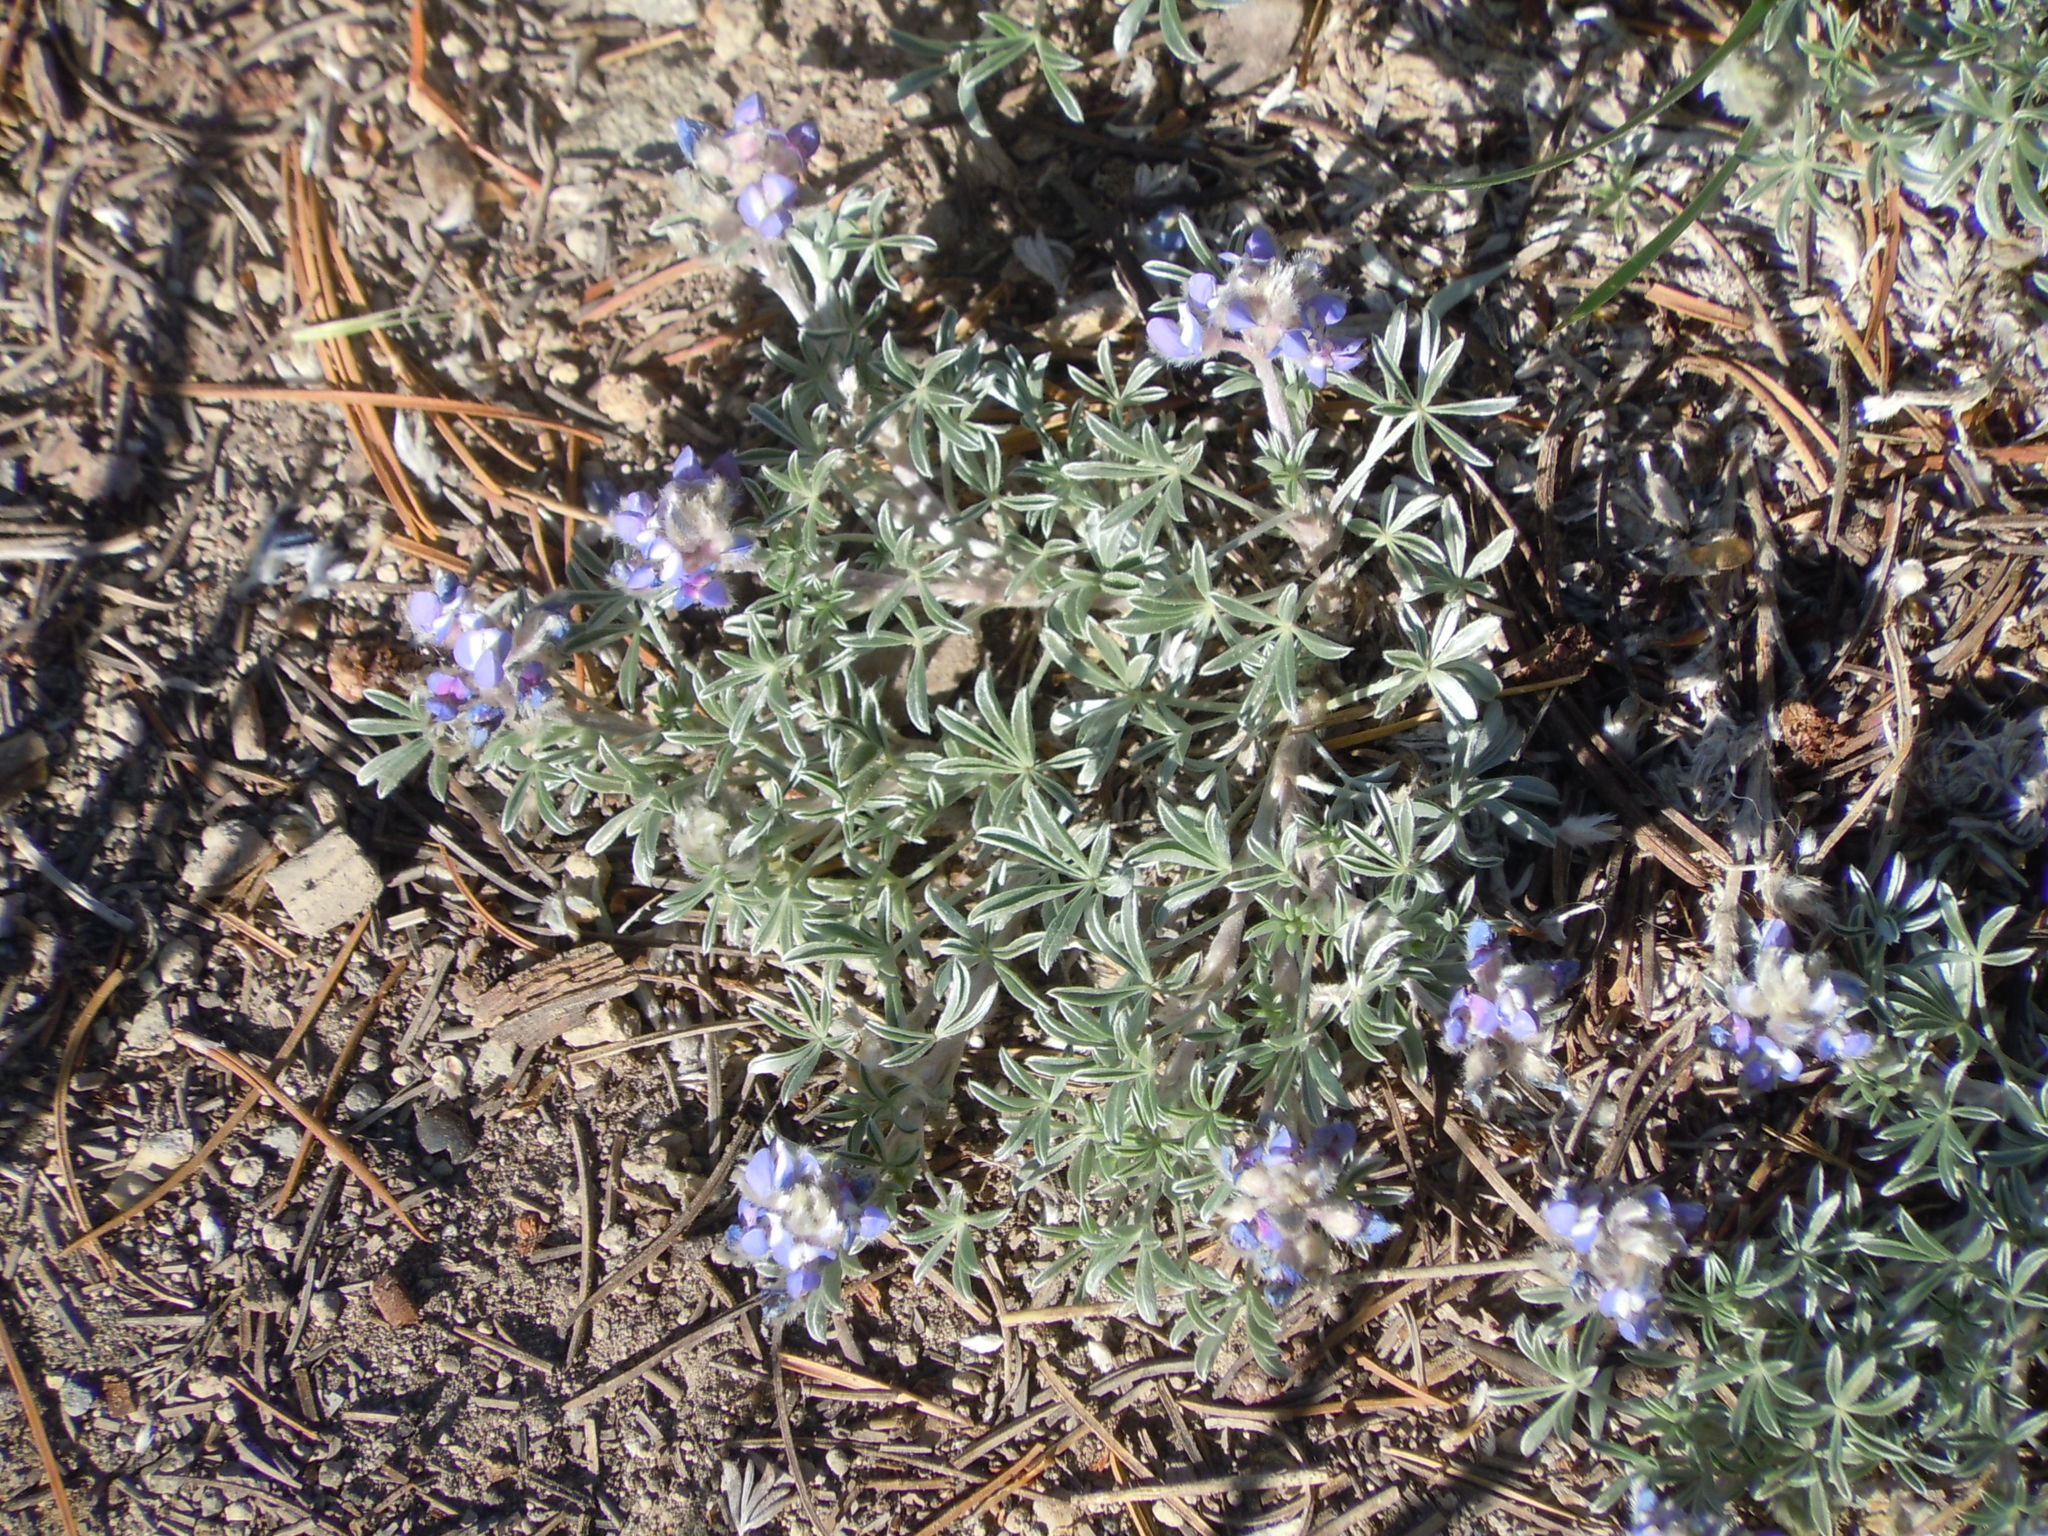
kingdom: Plantae
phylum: Tracheophyta
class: Magnoliopsida
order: Fabales
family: Fabaceae
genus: Lupinus
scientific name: Lupinus breweri
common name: Brewer's lupine
